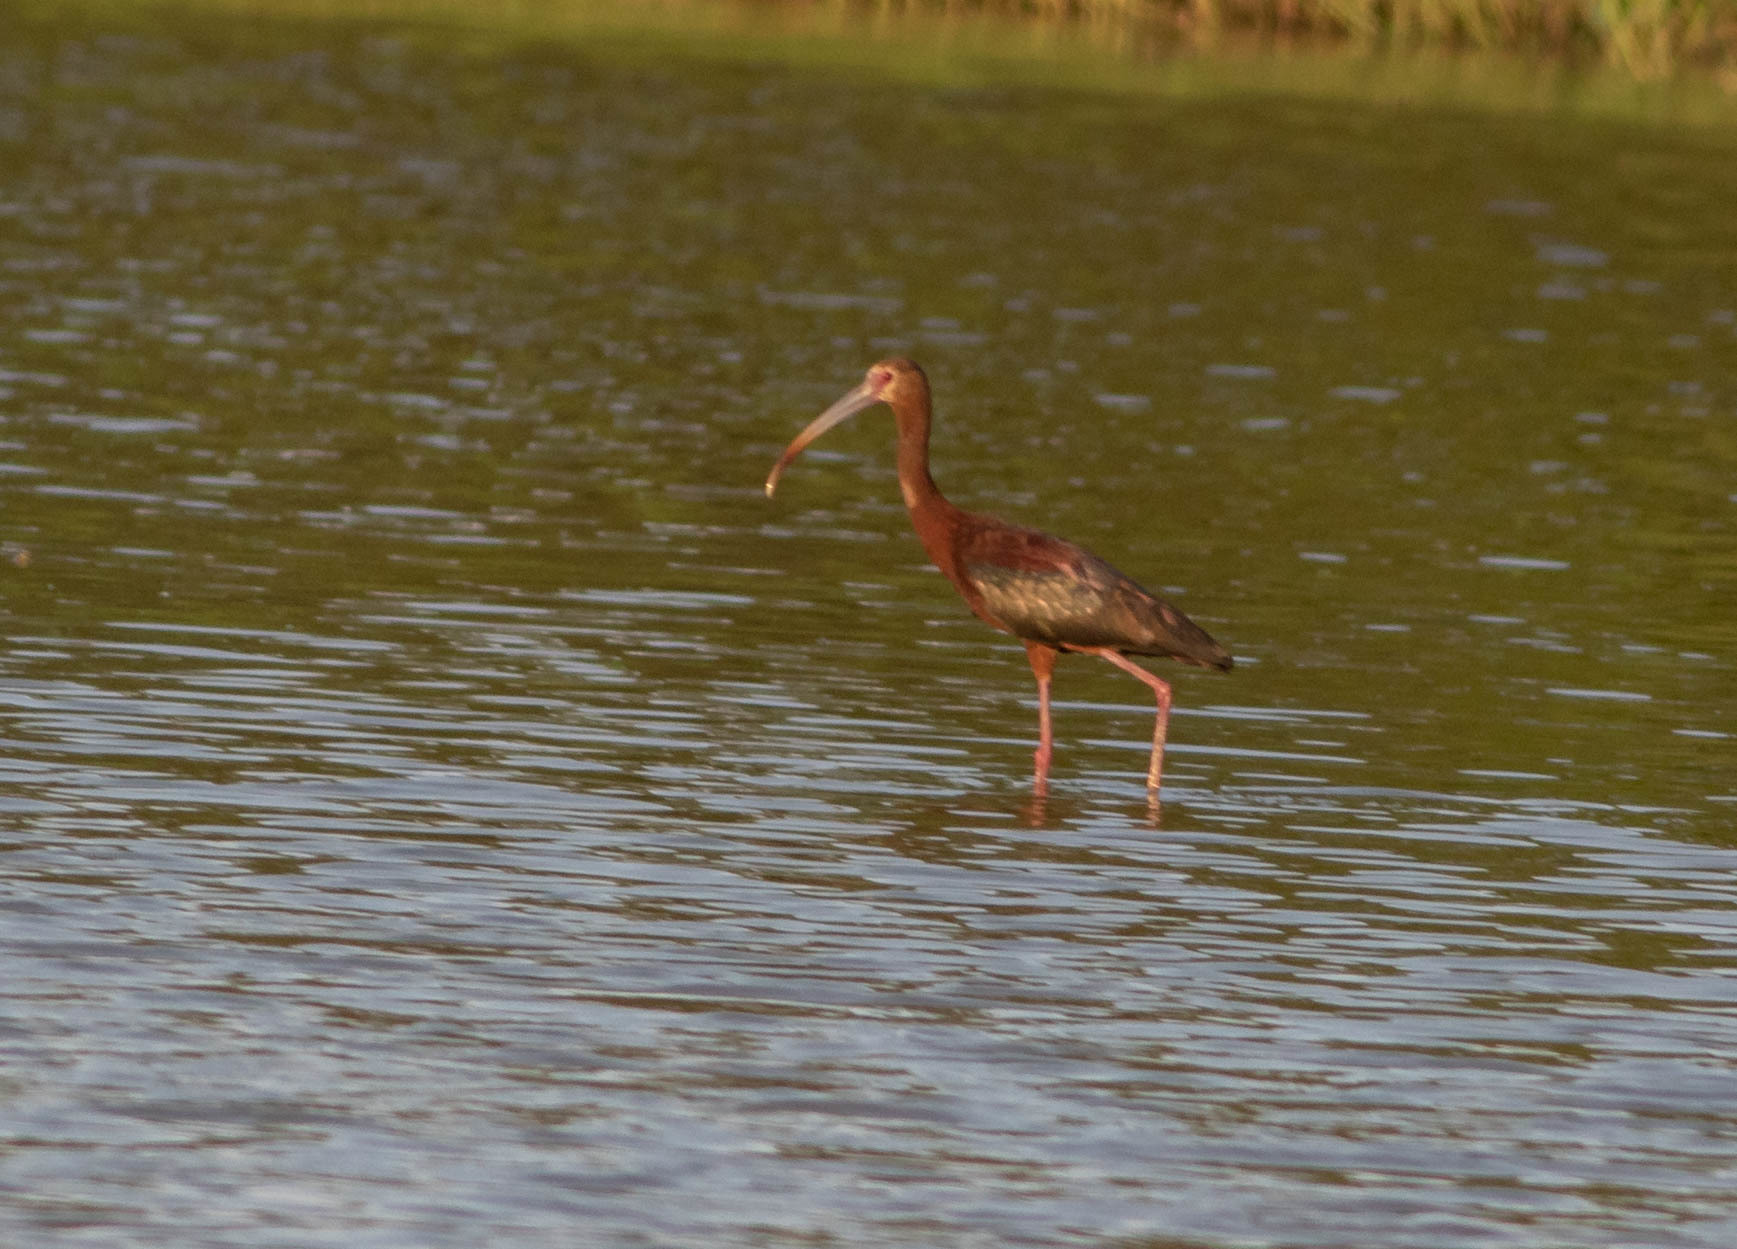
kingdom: Animalia
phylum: Chordata
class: Aves
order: Pelecaniformes
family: Threskiornithidae
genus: Plegadis
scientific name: Plegadis chihi
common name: White-faced ibis
